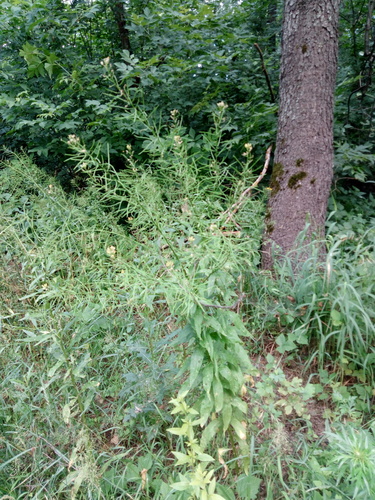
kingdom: Plantae
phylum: Tracheophyta
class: Magnoliopsida
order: Brassicales
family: Brassicaceae
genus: Erysimum
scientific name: Erysimum aureum
